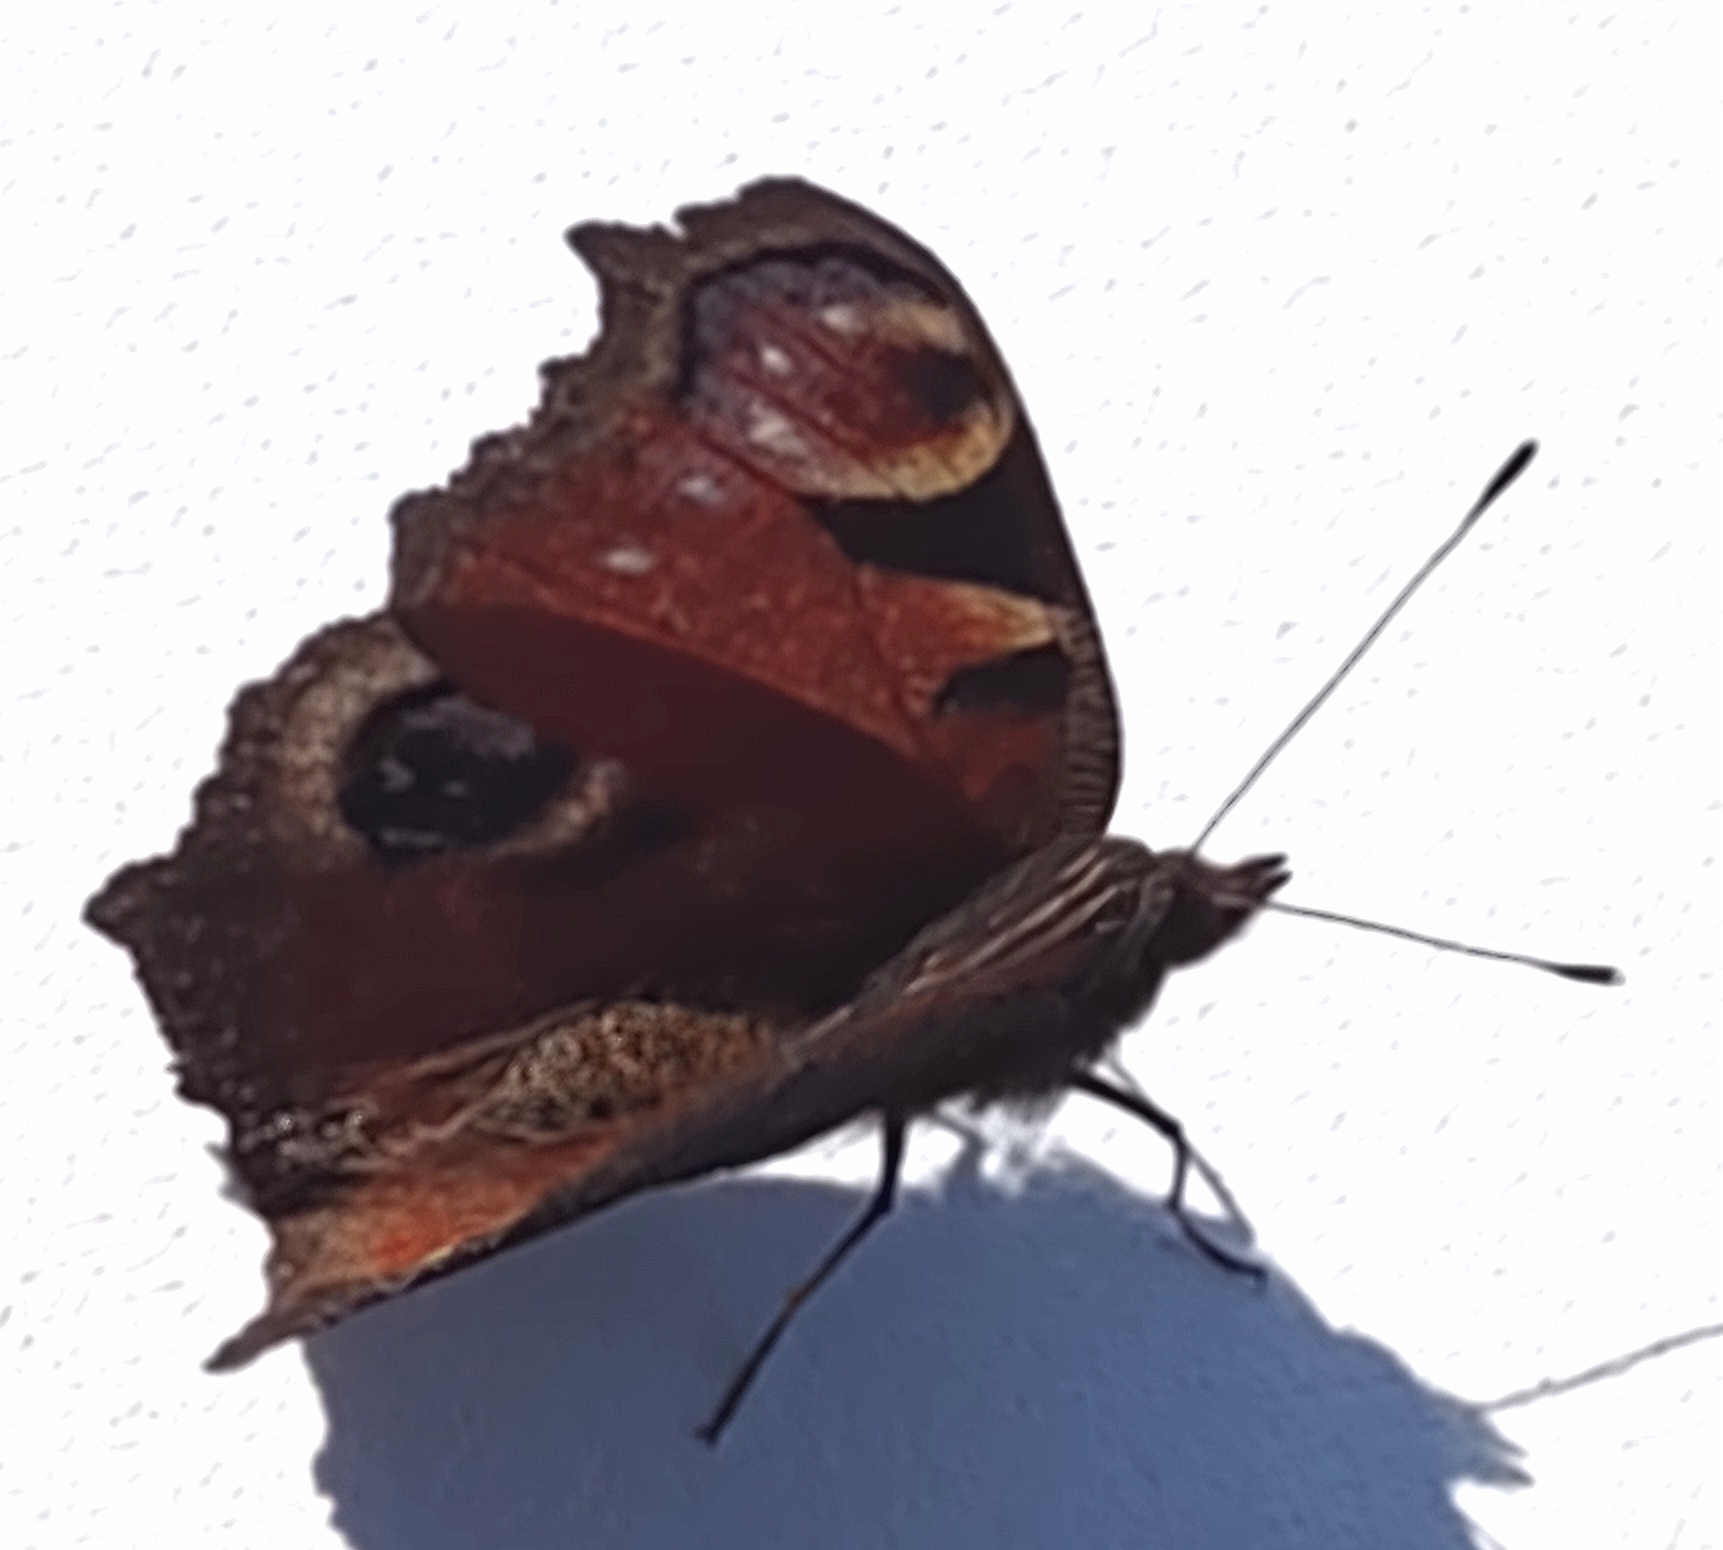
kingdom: Animalia
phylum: Arthropoda
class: Insecta
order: Lepidoptera
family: Nymphalidae
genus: Aglais
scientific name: Aglais io
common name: Peacock
